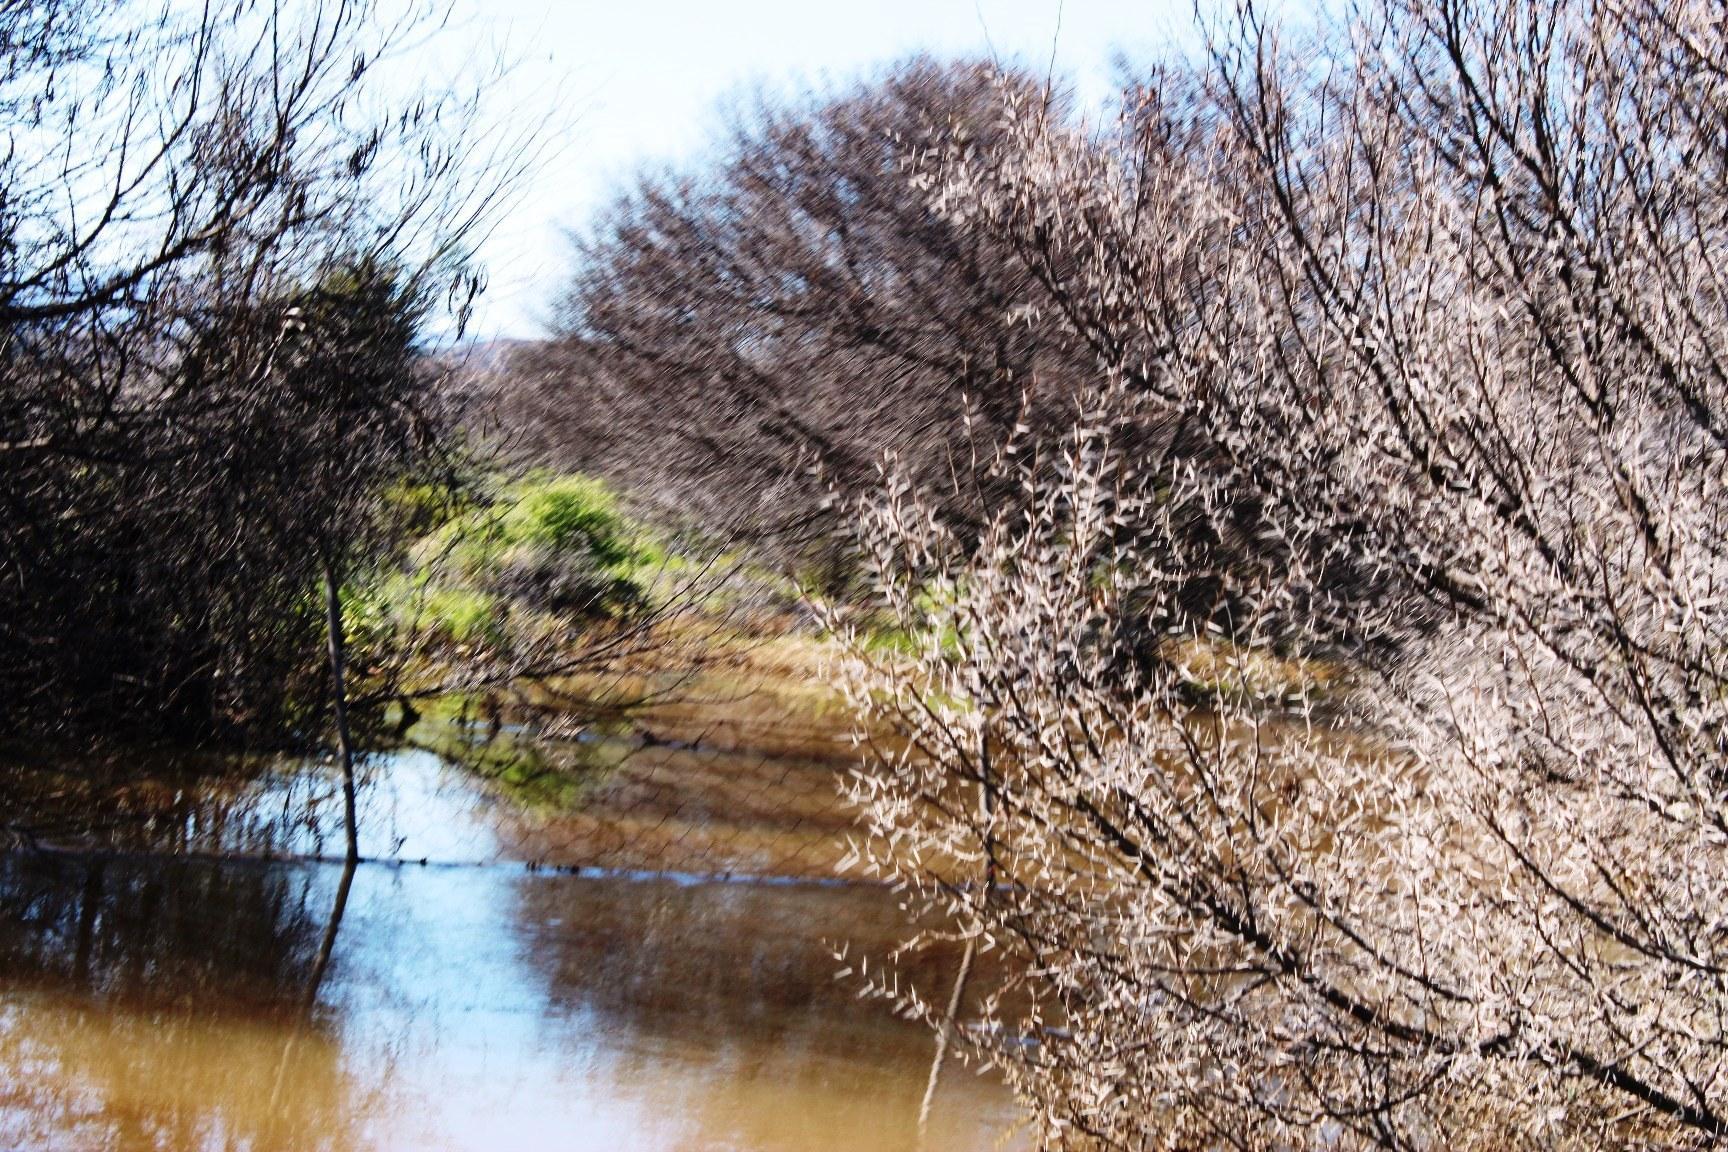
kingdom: Plantae
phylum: Tracheophyta
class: Magnoliopsida
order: Fabales
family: Fabaceae
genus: Vachellia
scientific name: Vachellia karroo
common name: Sweet thorn
